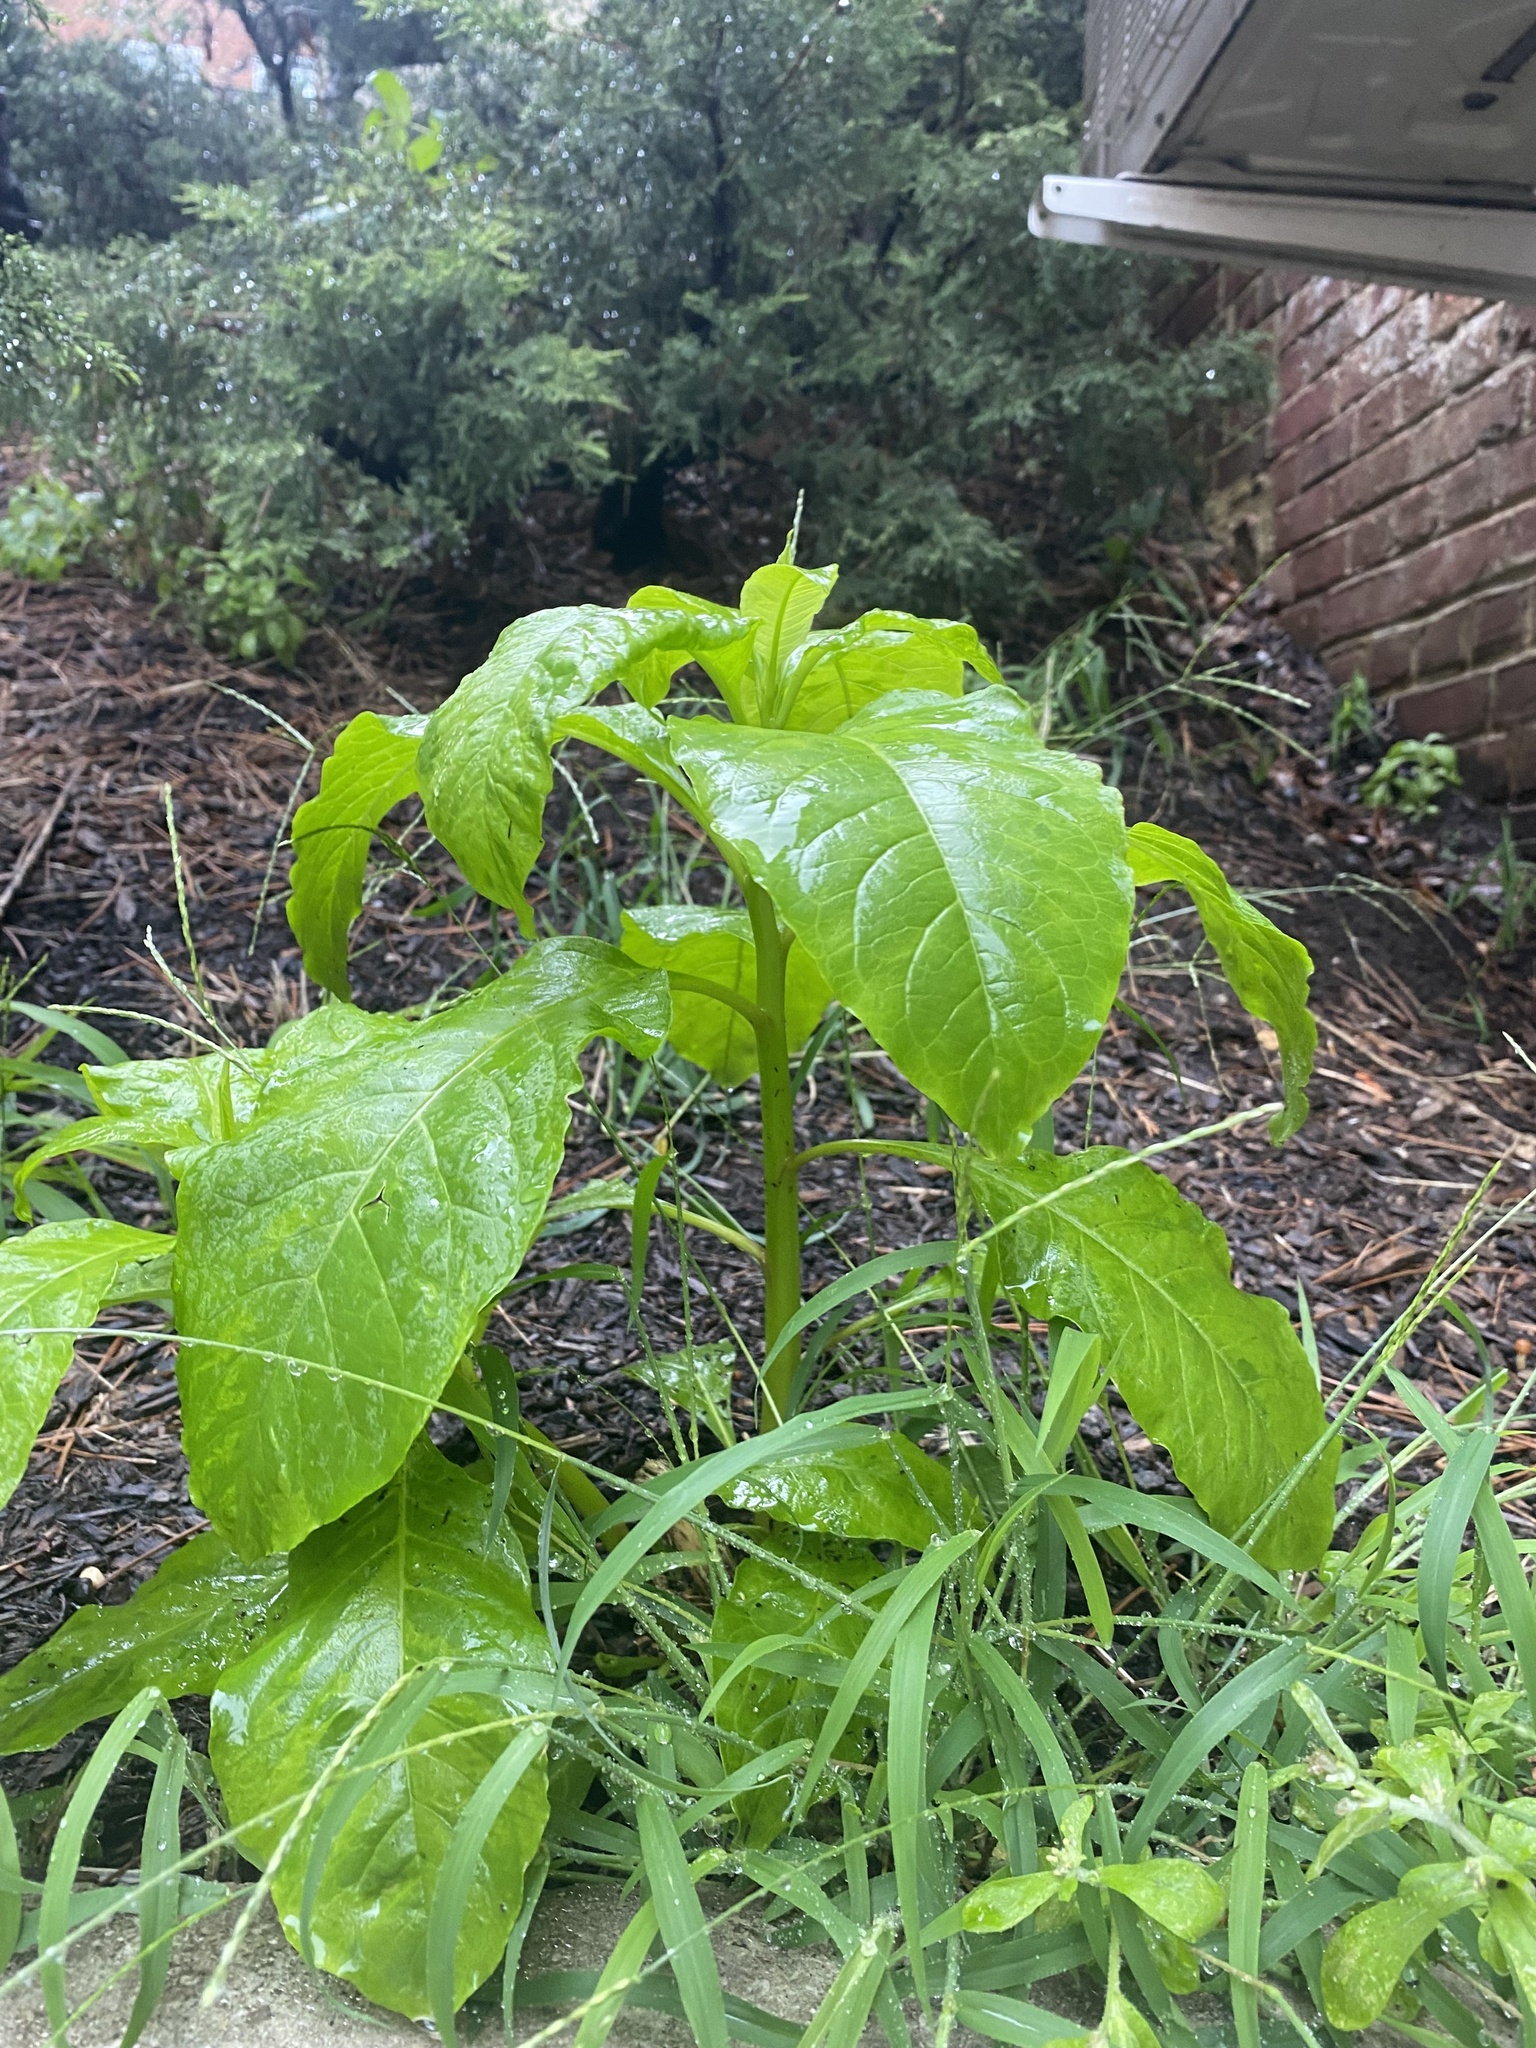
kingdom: Plantae
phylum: Tracheophyta
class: Magnoliopsida
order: Caryophyllales
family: Phytolaccaceae
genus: Phytolacca
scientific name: Phytolacca americana
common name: American pokeweed
